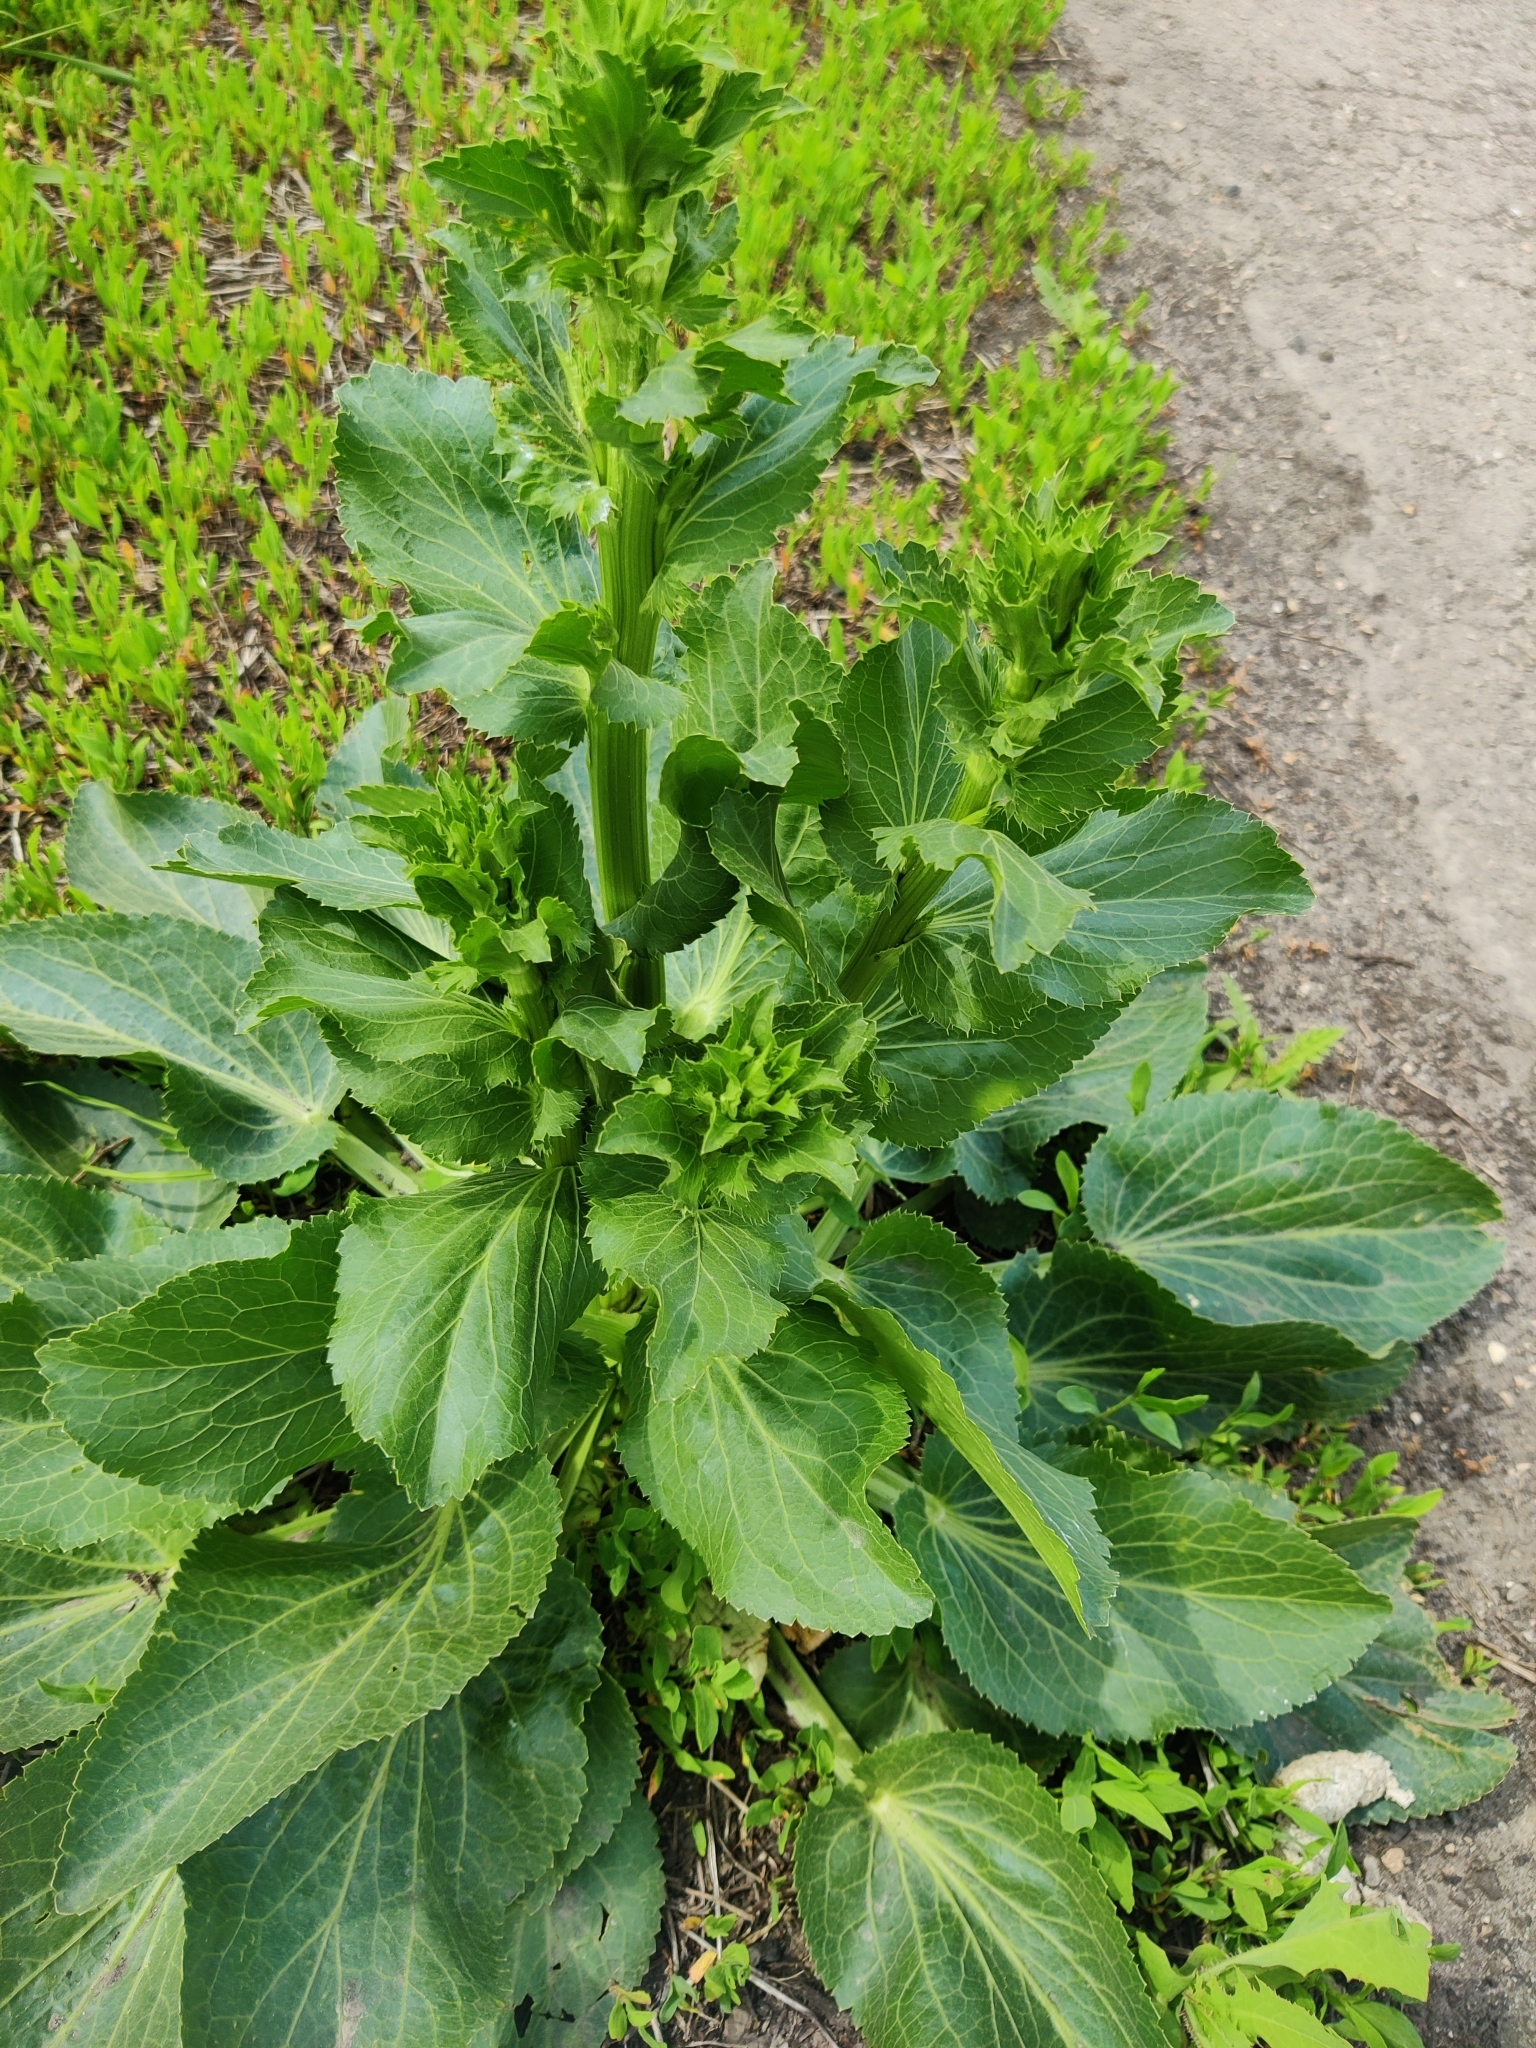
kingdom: Plantae
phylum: Tracheophyta
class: Magnoliopsida
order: Apiales
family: Apiaceae
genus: Eryngium
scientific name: Eryngium planum
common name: Blue eryngo
